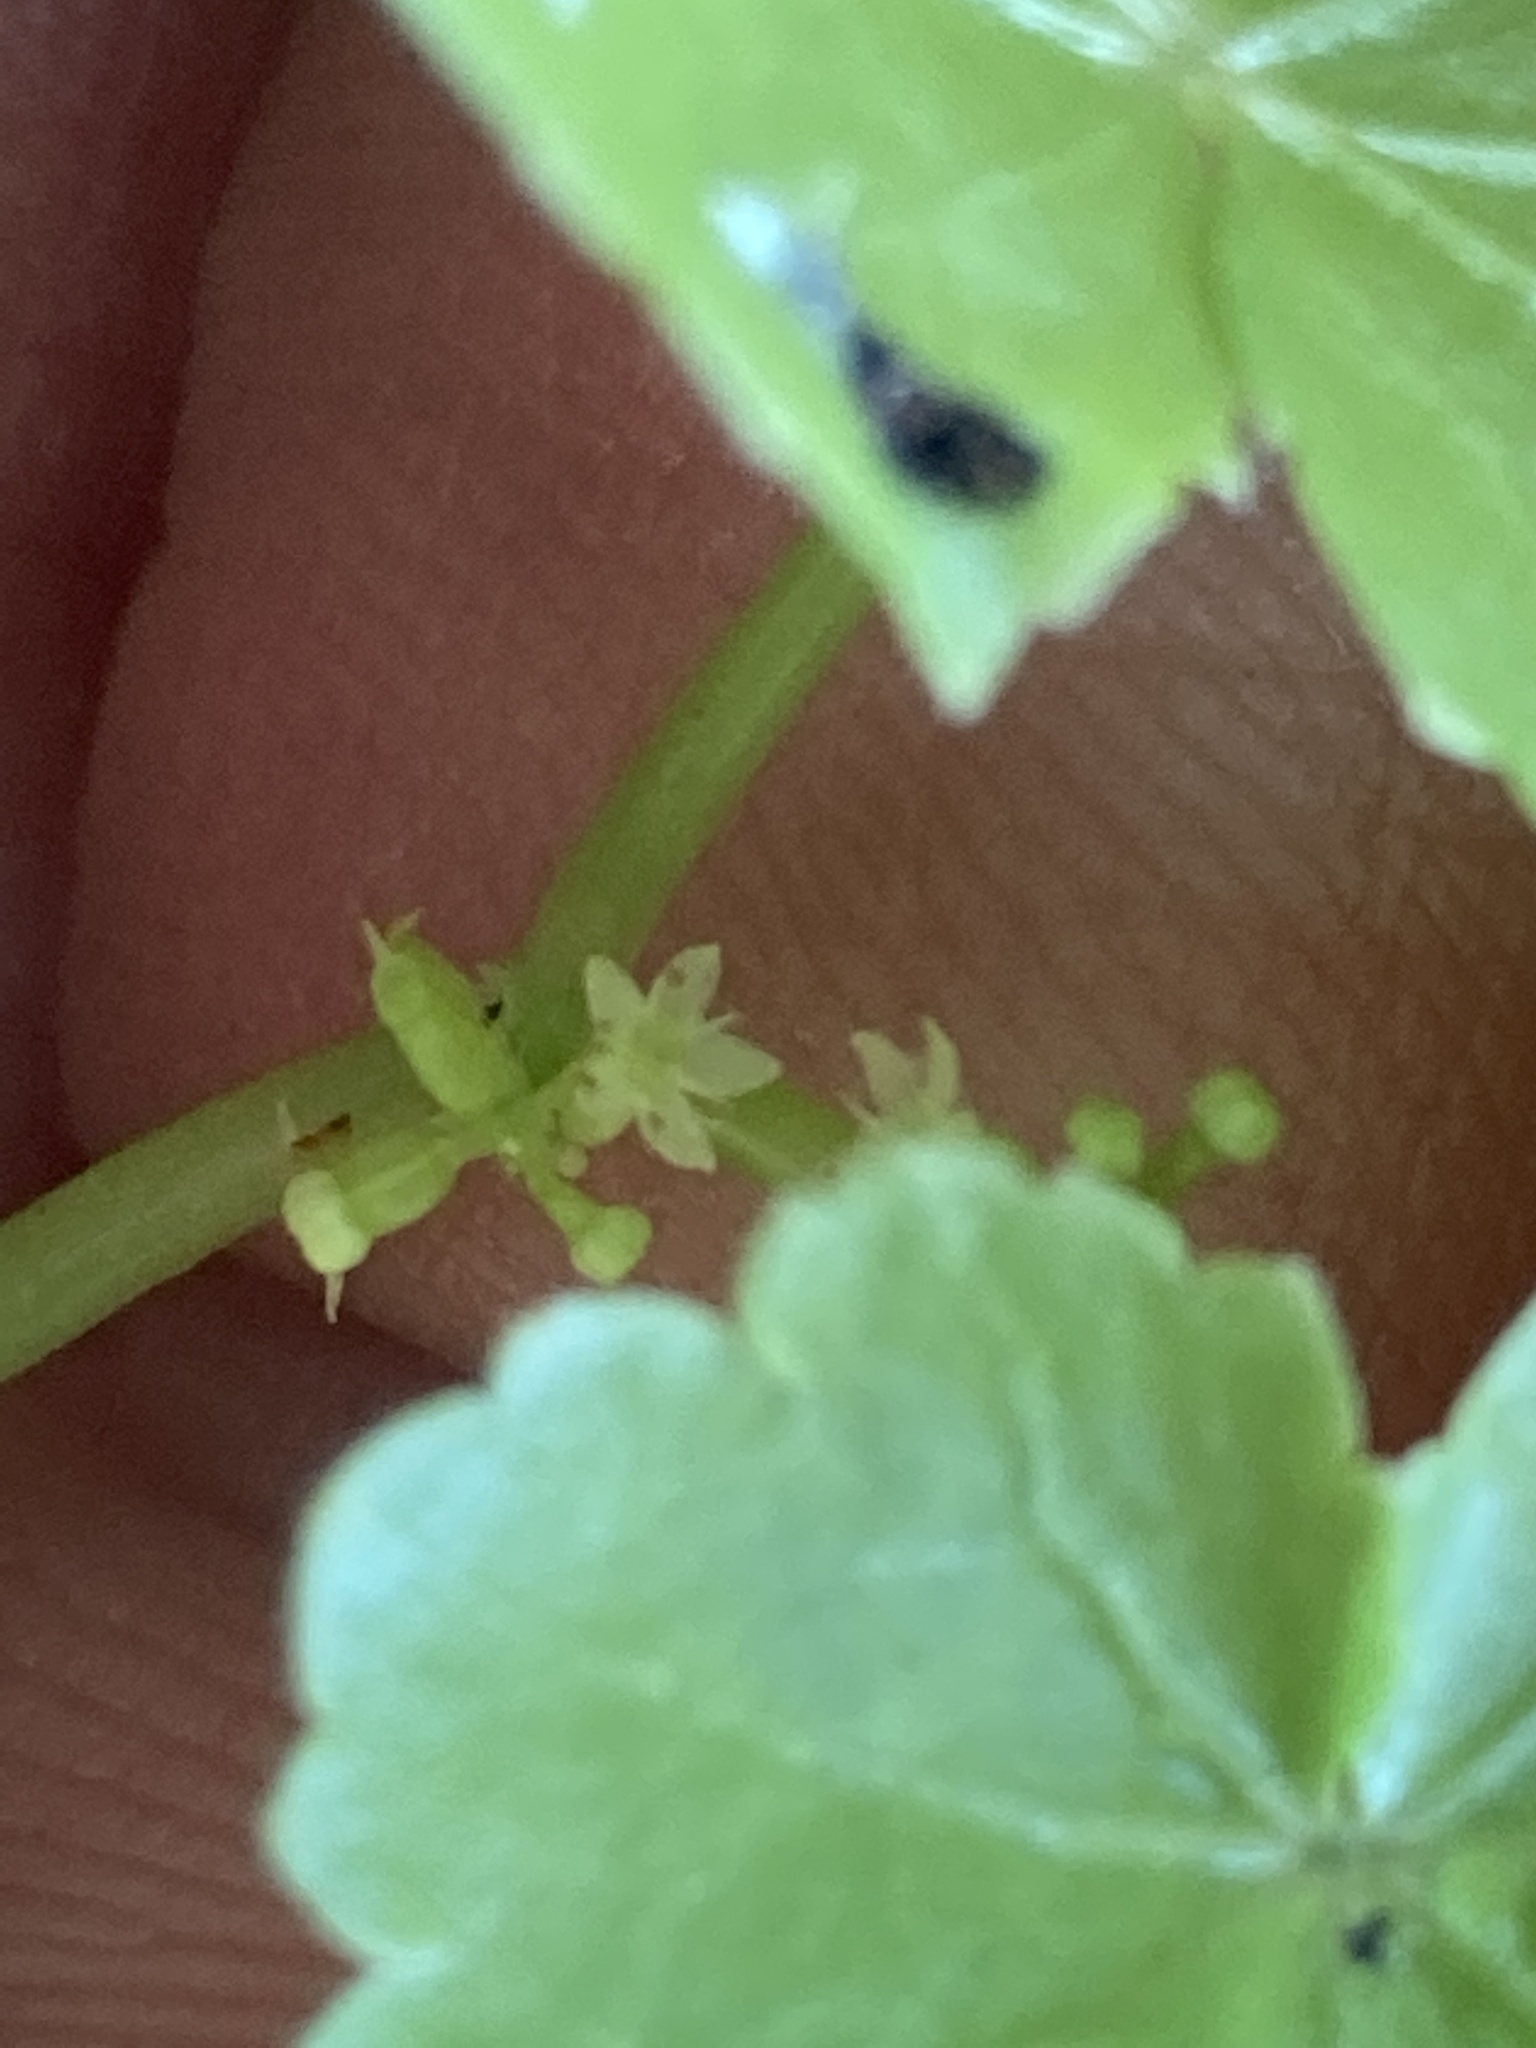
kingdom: Plantae
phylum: Tracheophyta
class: Magnoliopsida
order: Apiales
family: Araliaceae
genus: Hydrocotyle
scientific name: Hydrocotyle americana
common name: American water-pennywort
